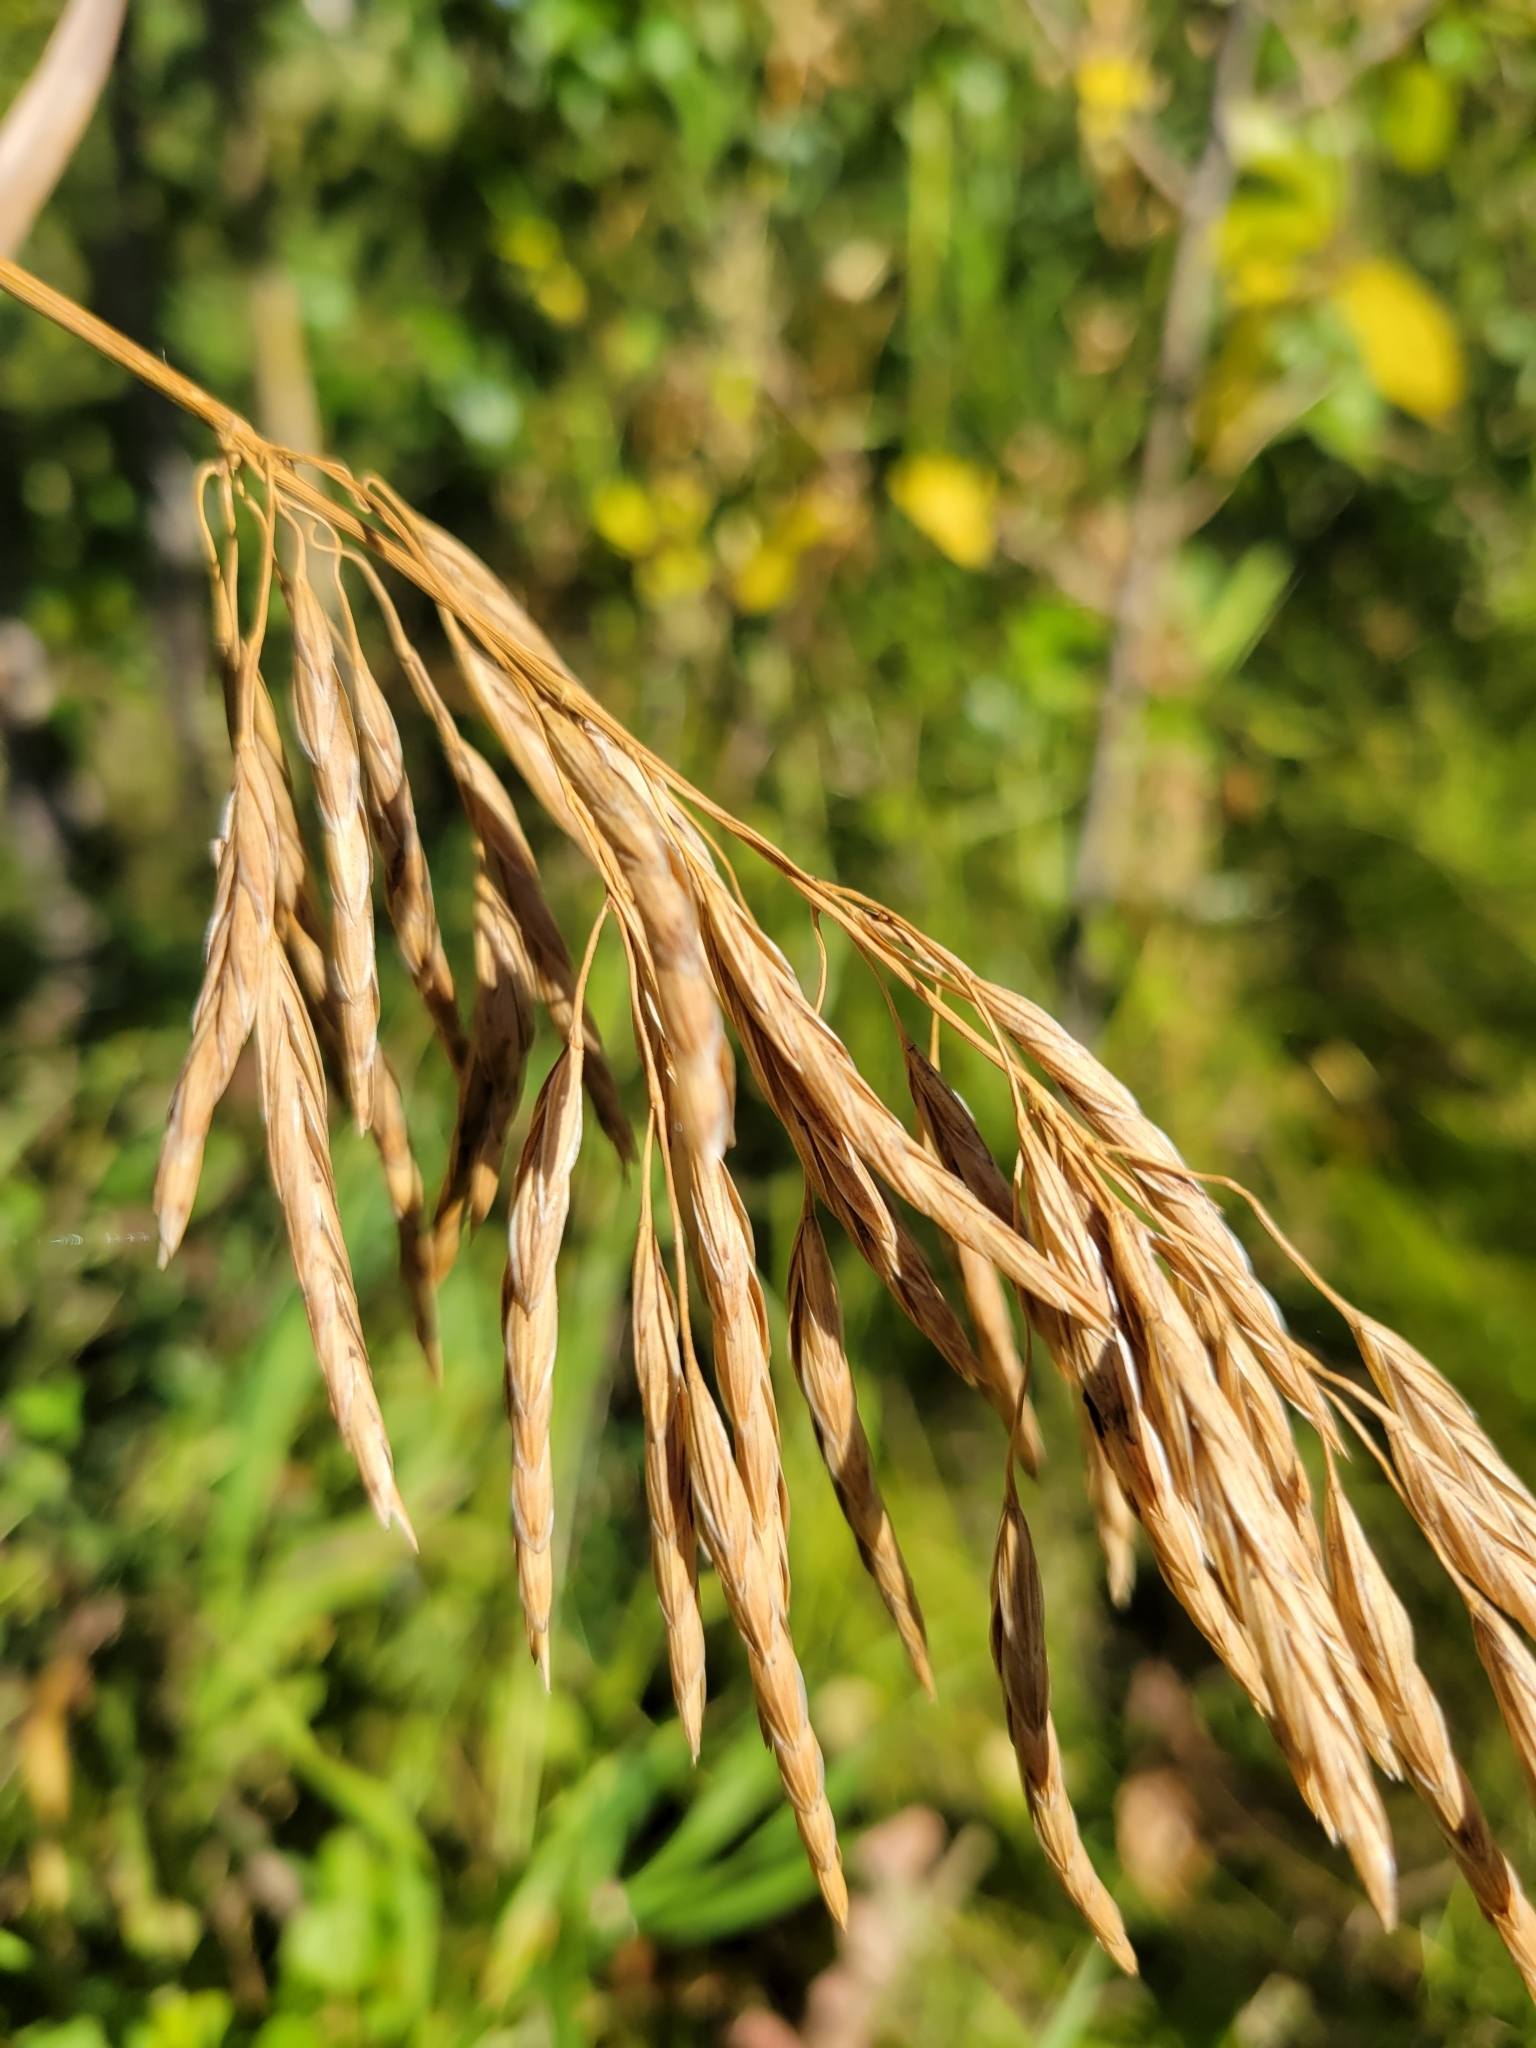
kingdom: Plantae
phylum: Tracheophyta
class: Liliopsida
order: Poales
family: Poaceae
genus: Bromus
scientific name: Bromus inermis
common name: Smooth brome
